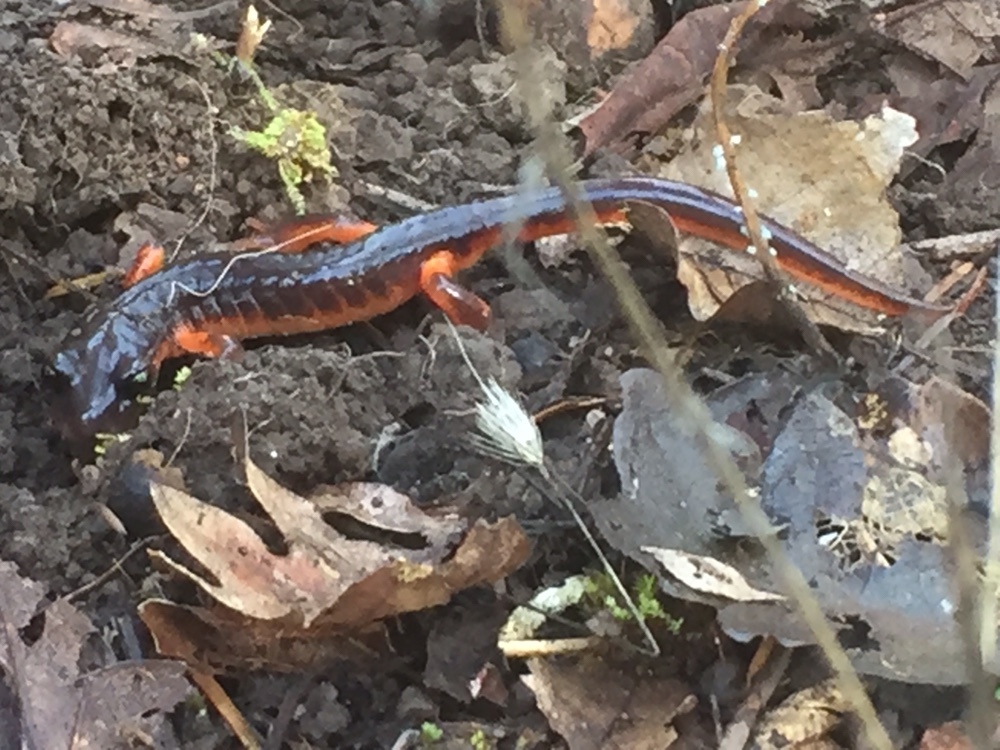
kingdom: Animalia
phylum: Chordata
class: Amphibia
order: Caudata
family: Plethodontidae
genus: Ensatina
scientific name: Ensatina eschscholtzii
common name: Ensatina
